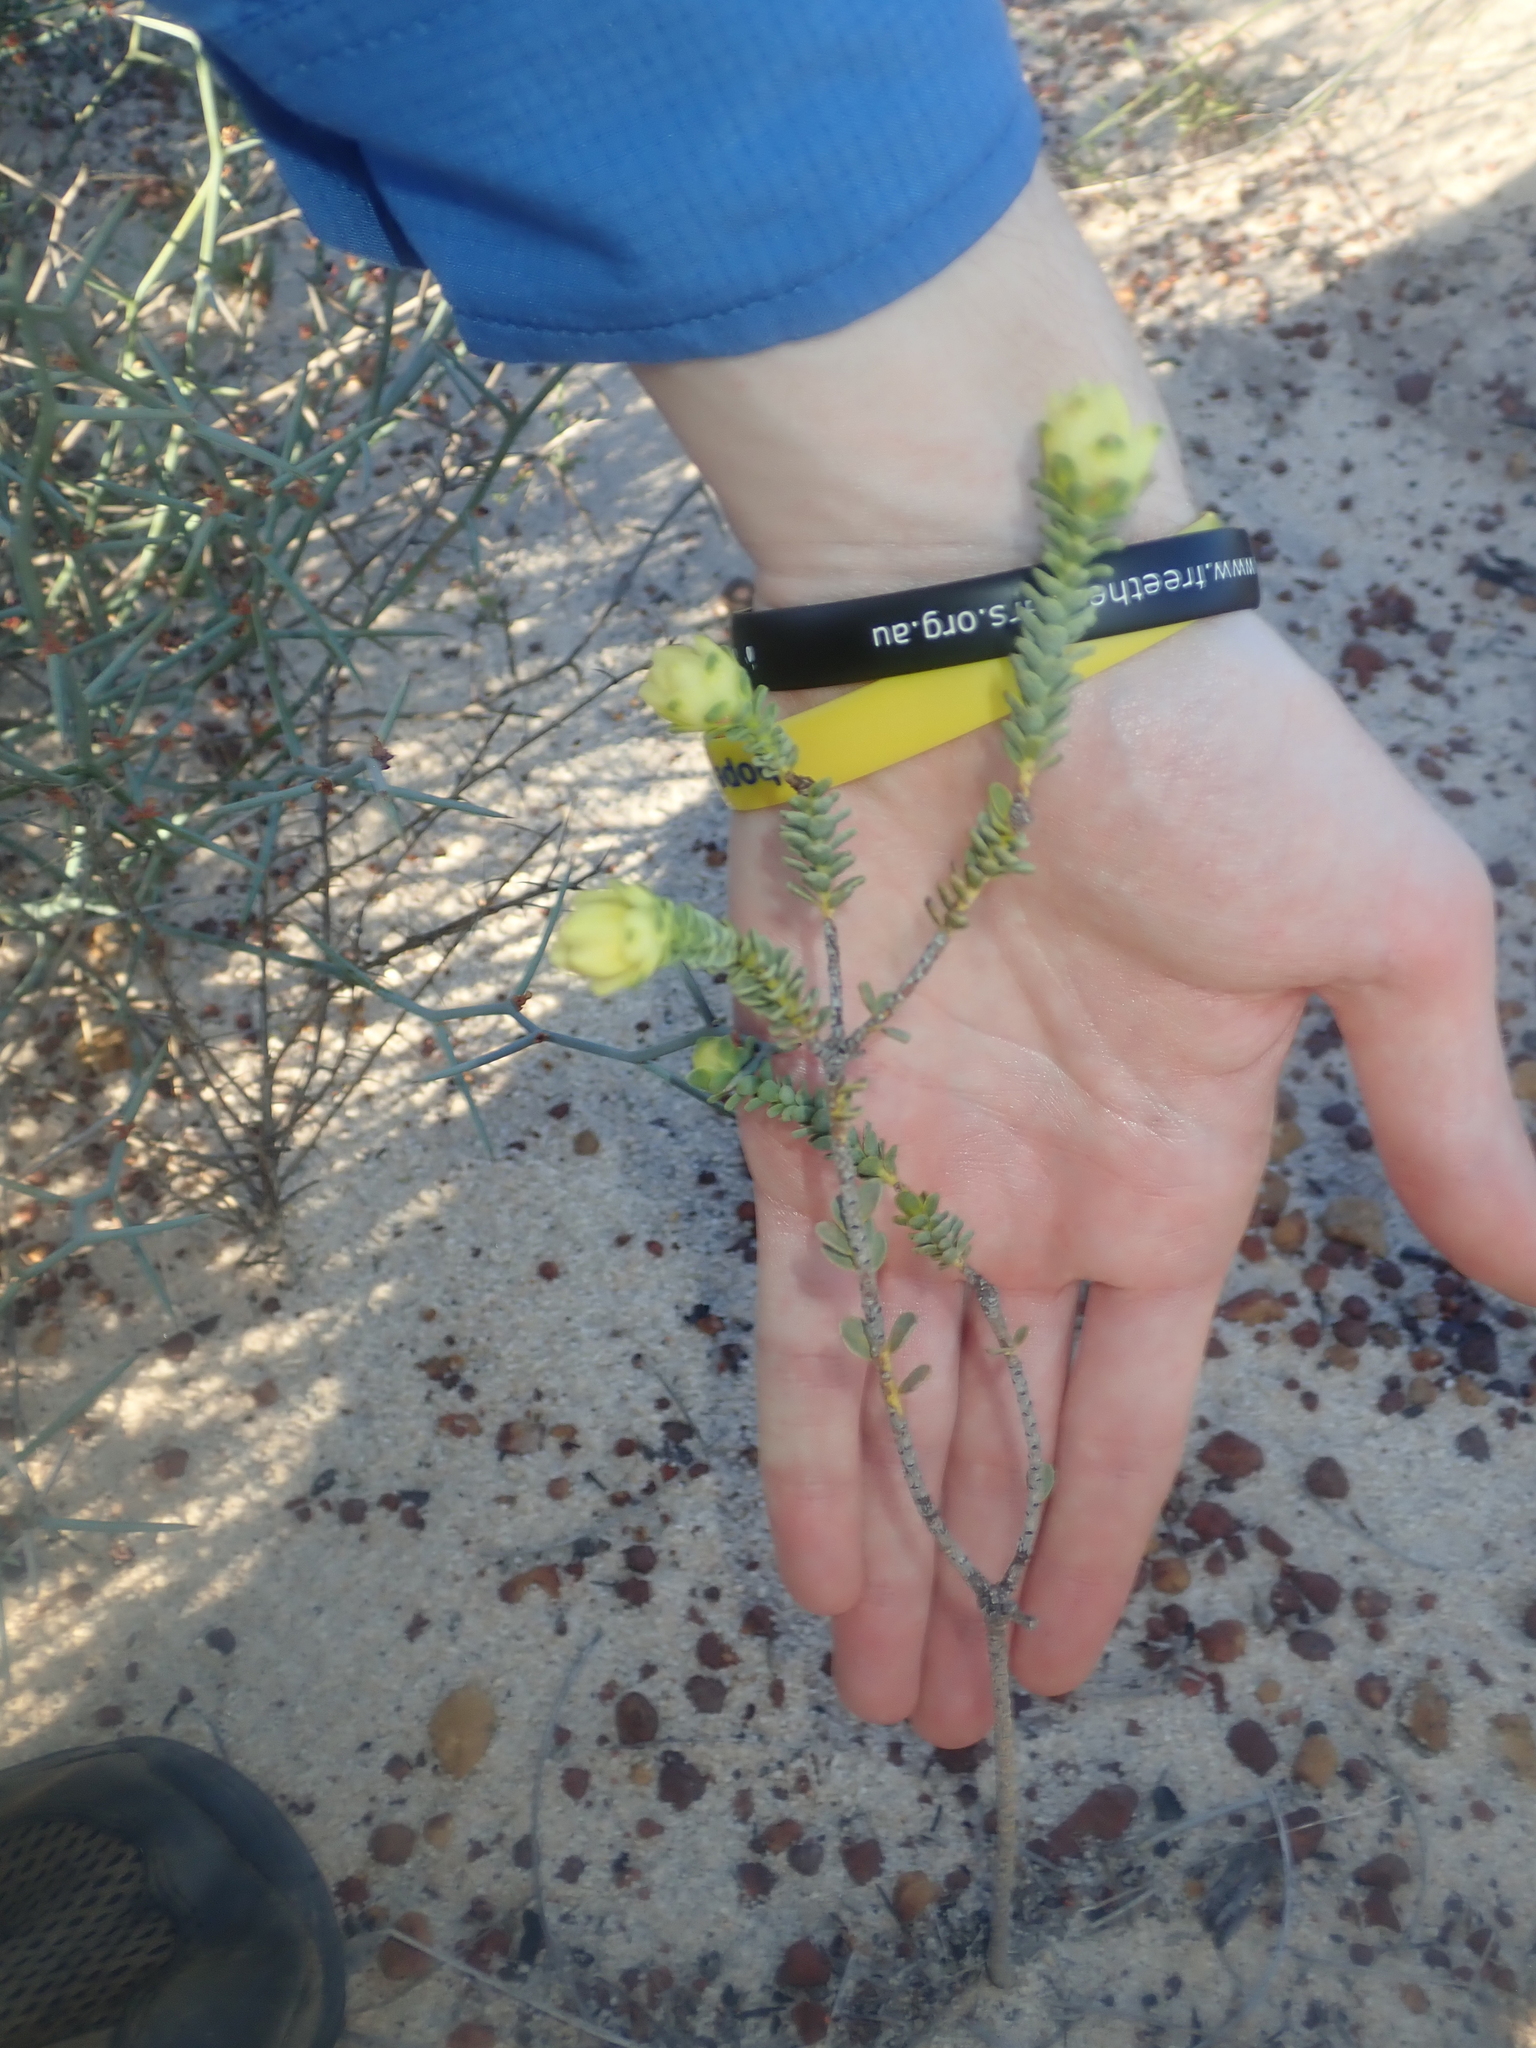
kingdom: Plantae
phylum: Tracheophyta
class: Magnoliopsida
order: Sapindales
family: Rutaceae
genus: Geleznowia
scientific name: Geleznowia
